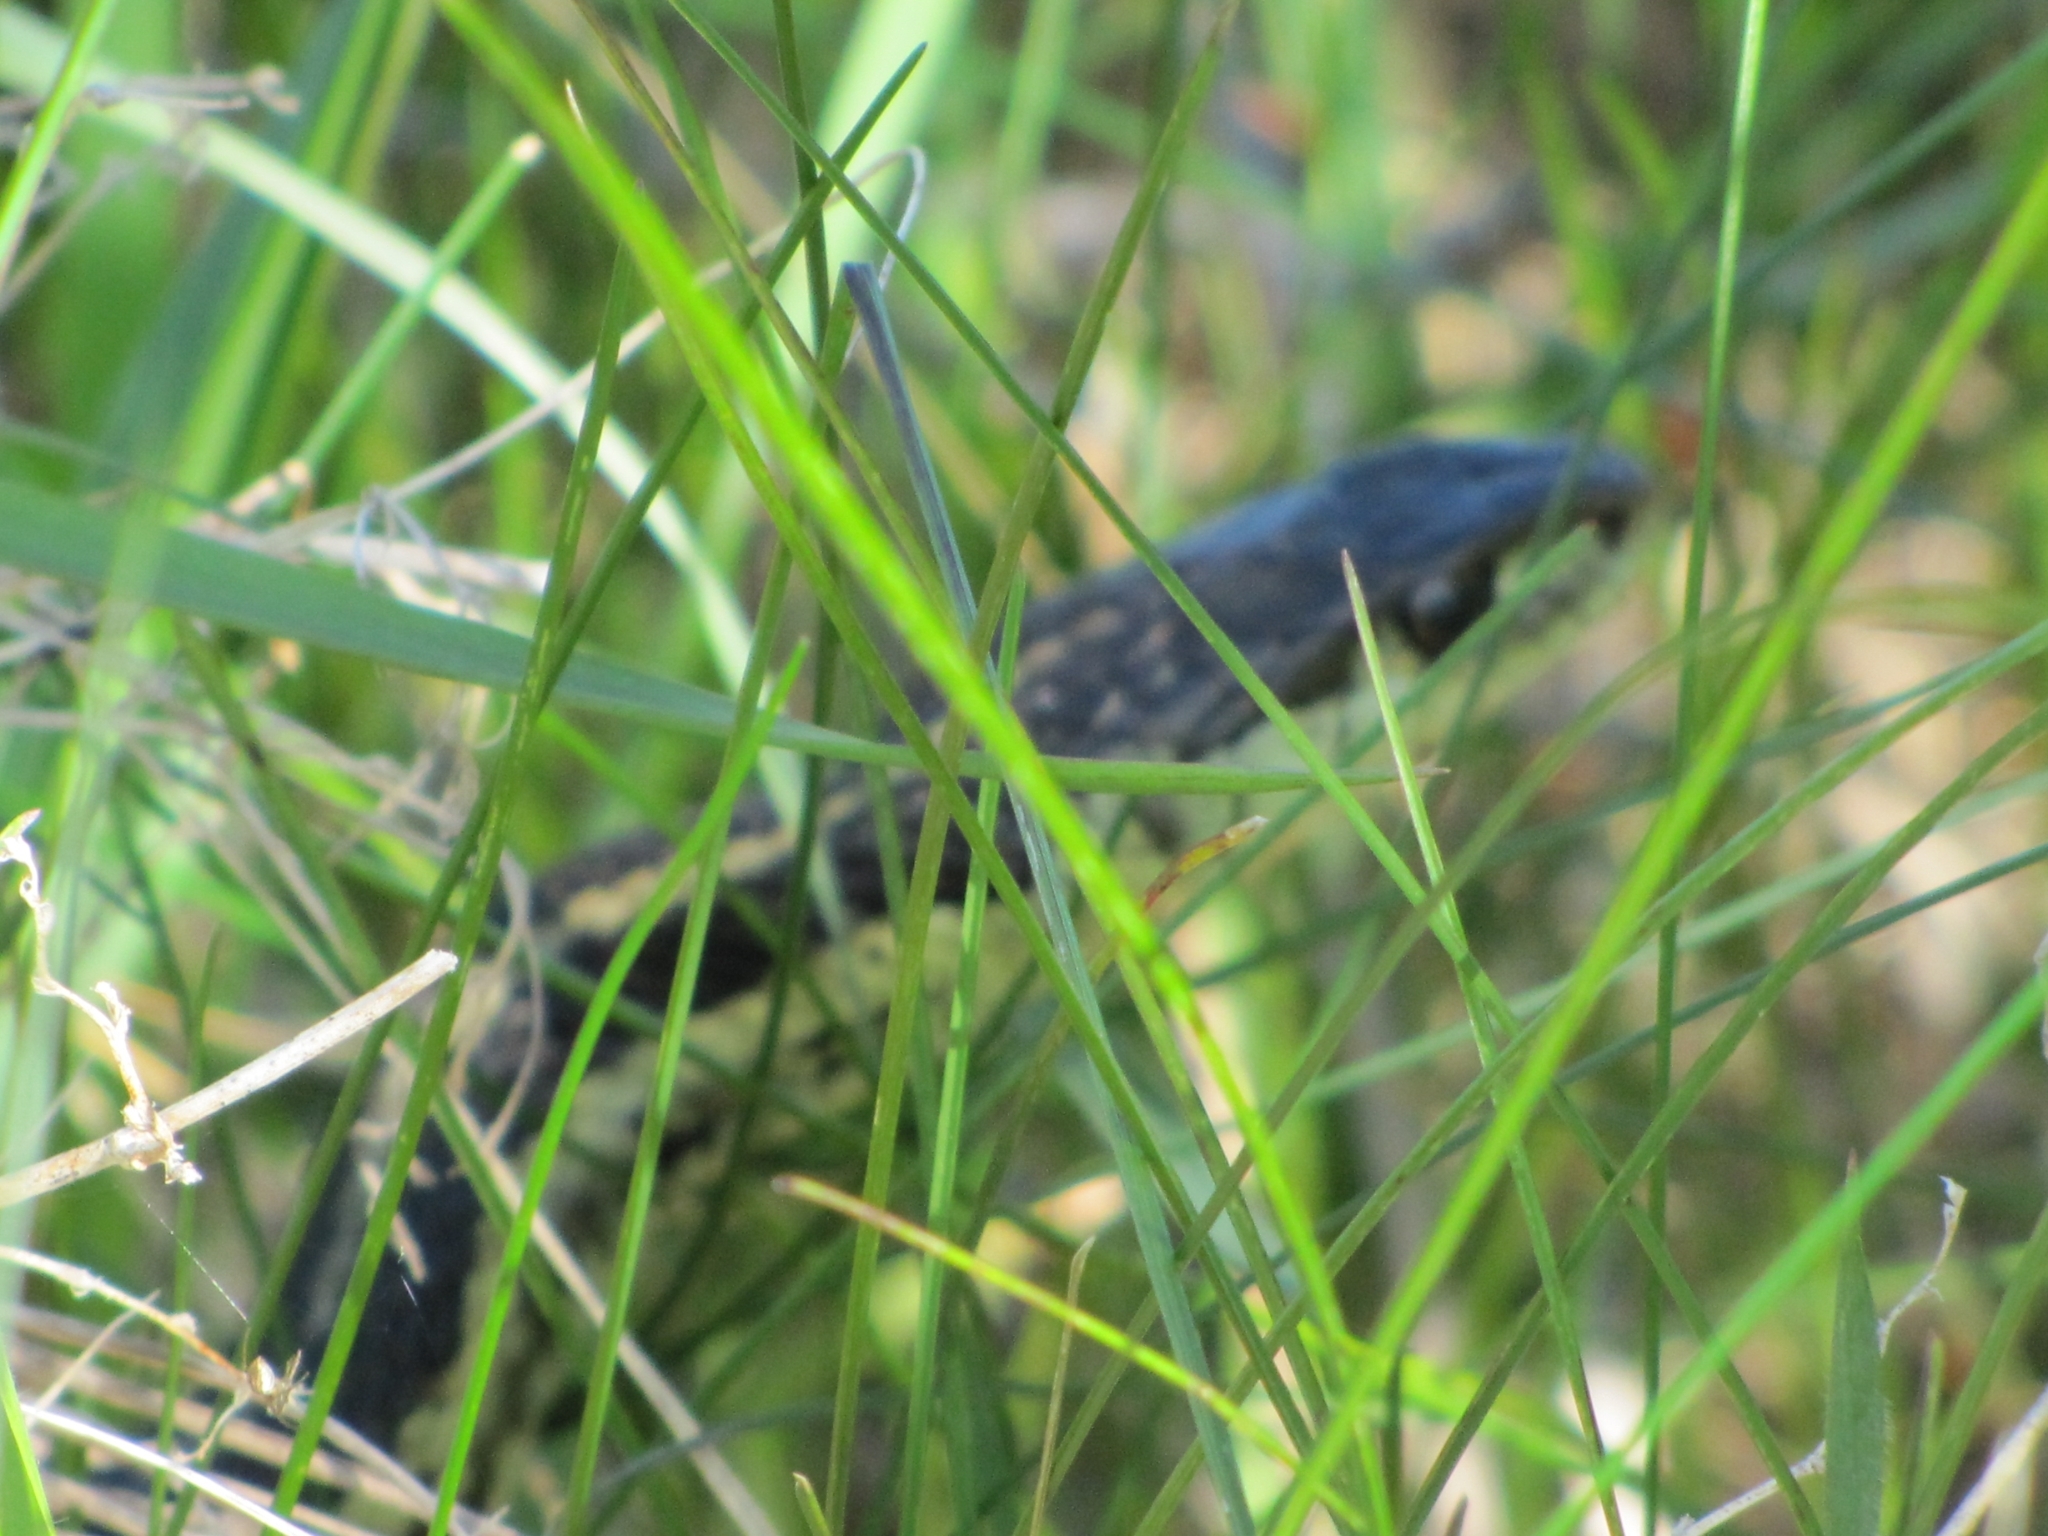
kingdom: Animalia
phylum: Chordata
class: Squamata
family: Colubridae
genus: Thamnophis
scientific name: Thamnophis sirtalis
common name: Common garter snake
